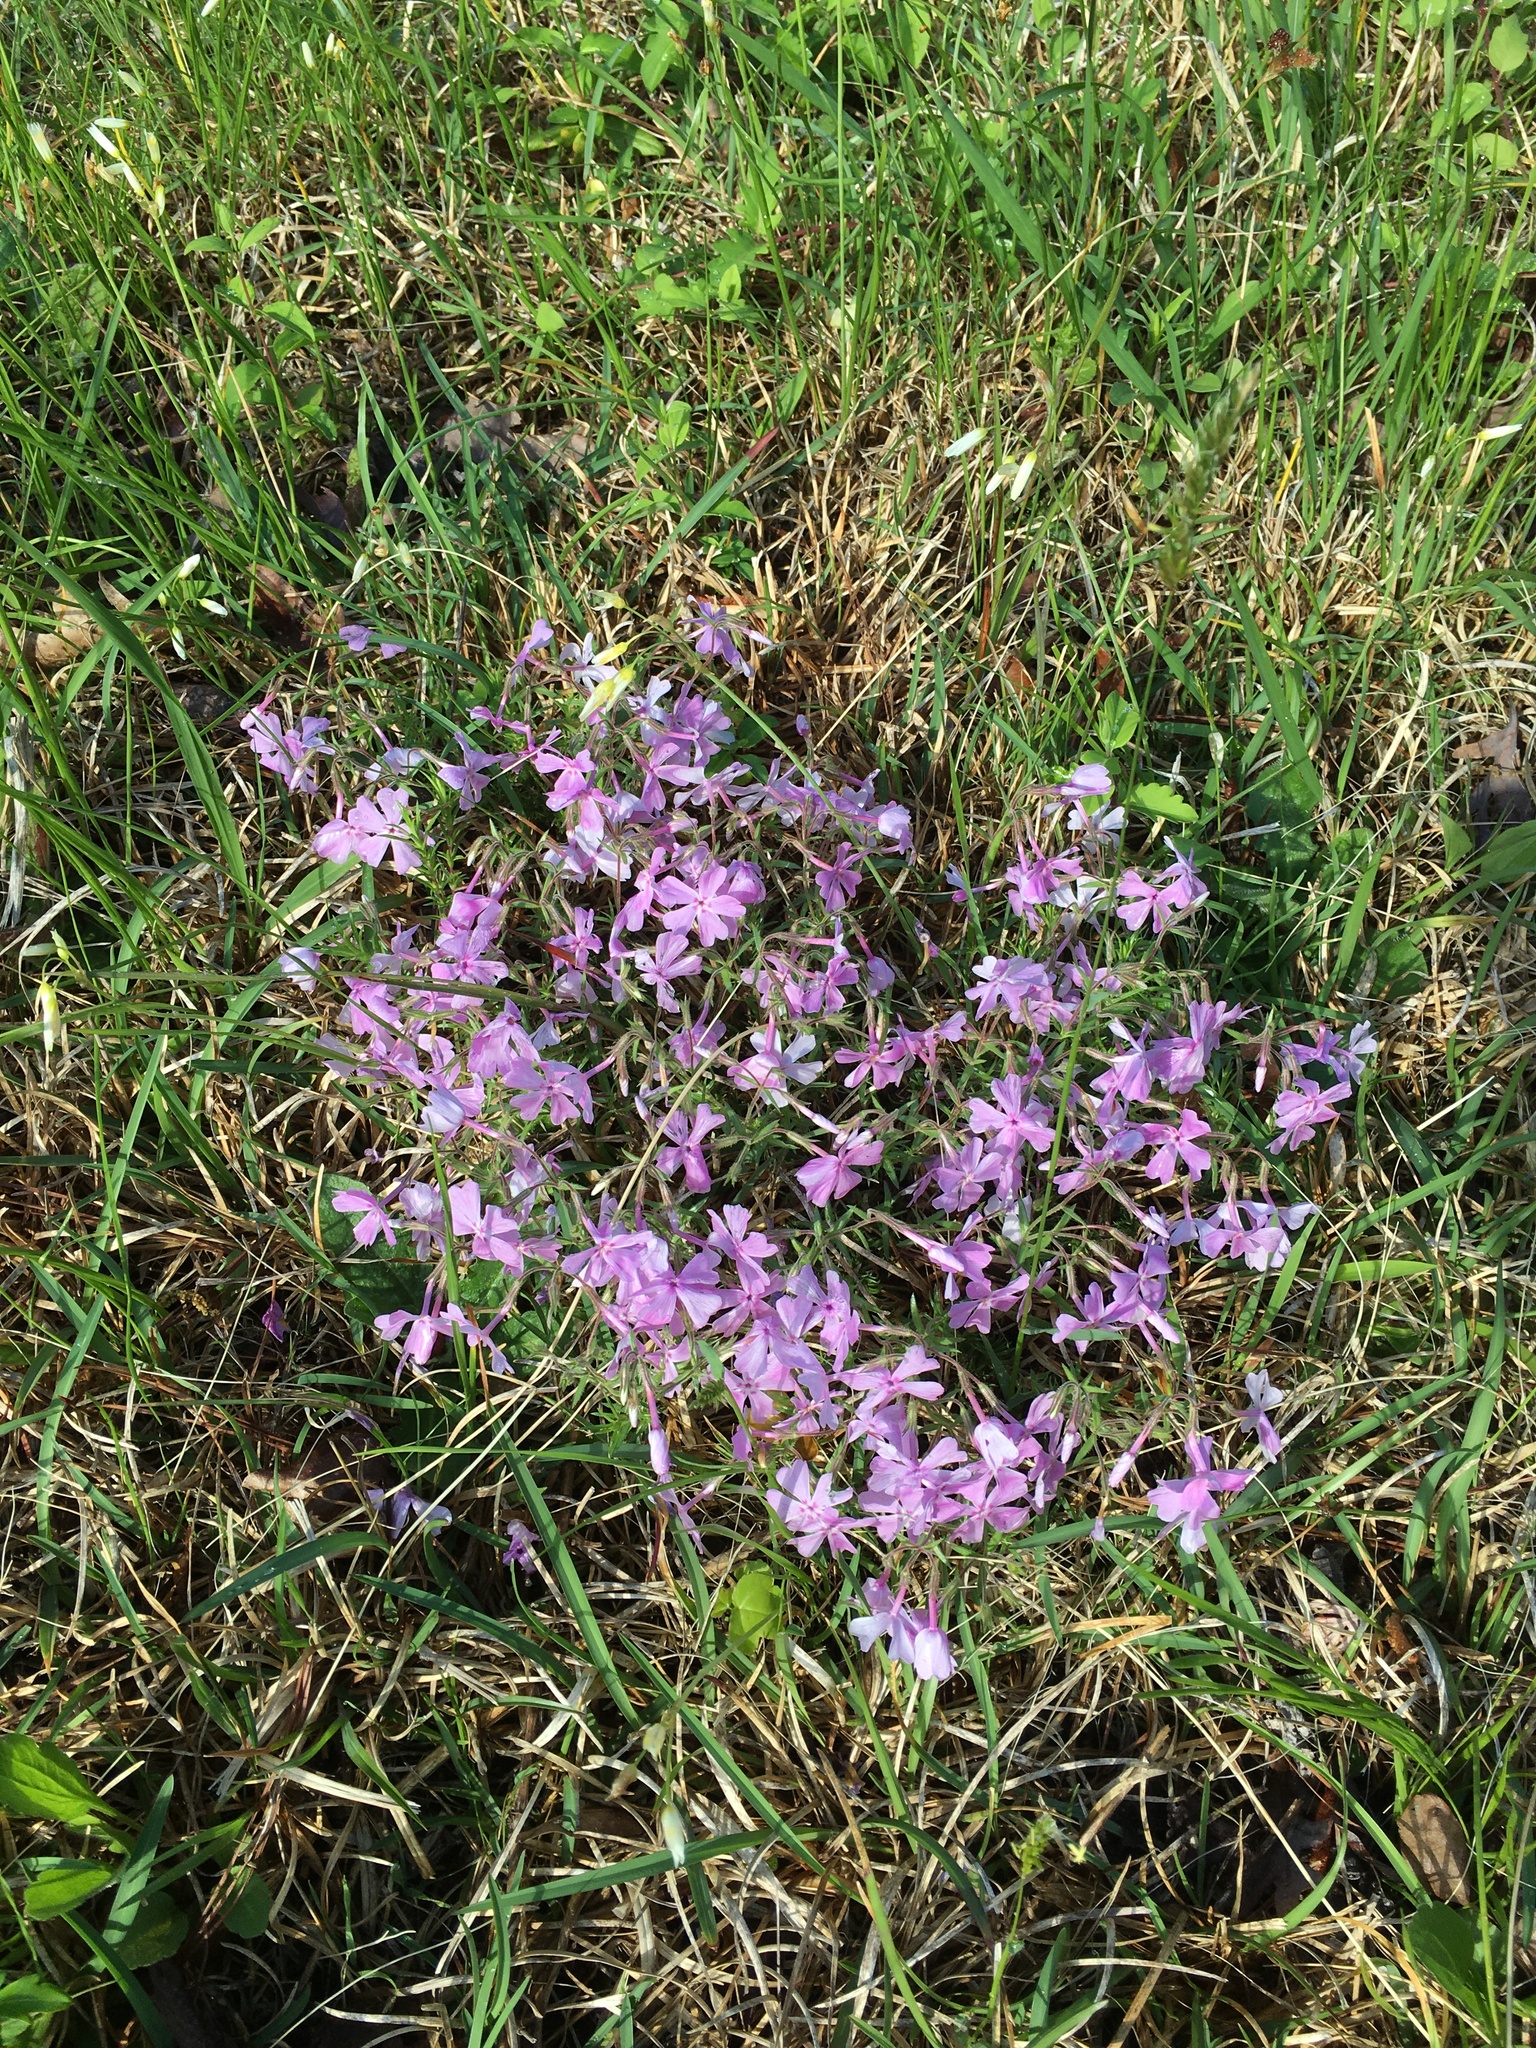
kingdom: Plantae
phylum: Tracheophyta
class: Magnoliopsida
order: Ericales
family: Polemoniaceae
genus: Phlox
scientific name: Phlox nivalis
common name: Trailing phlox
